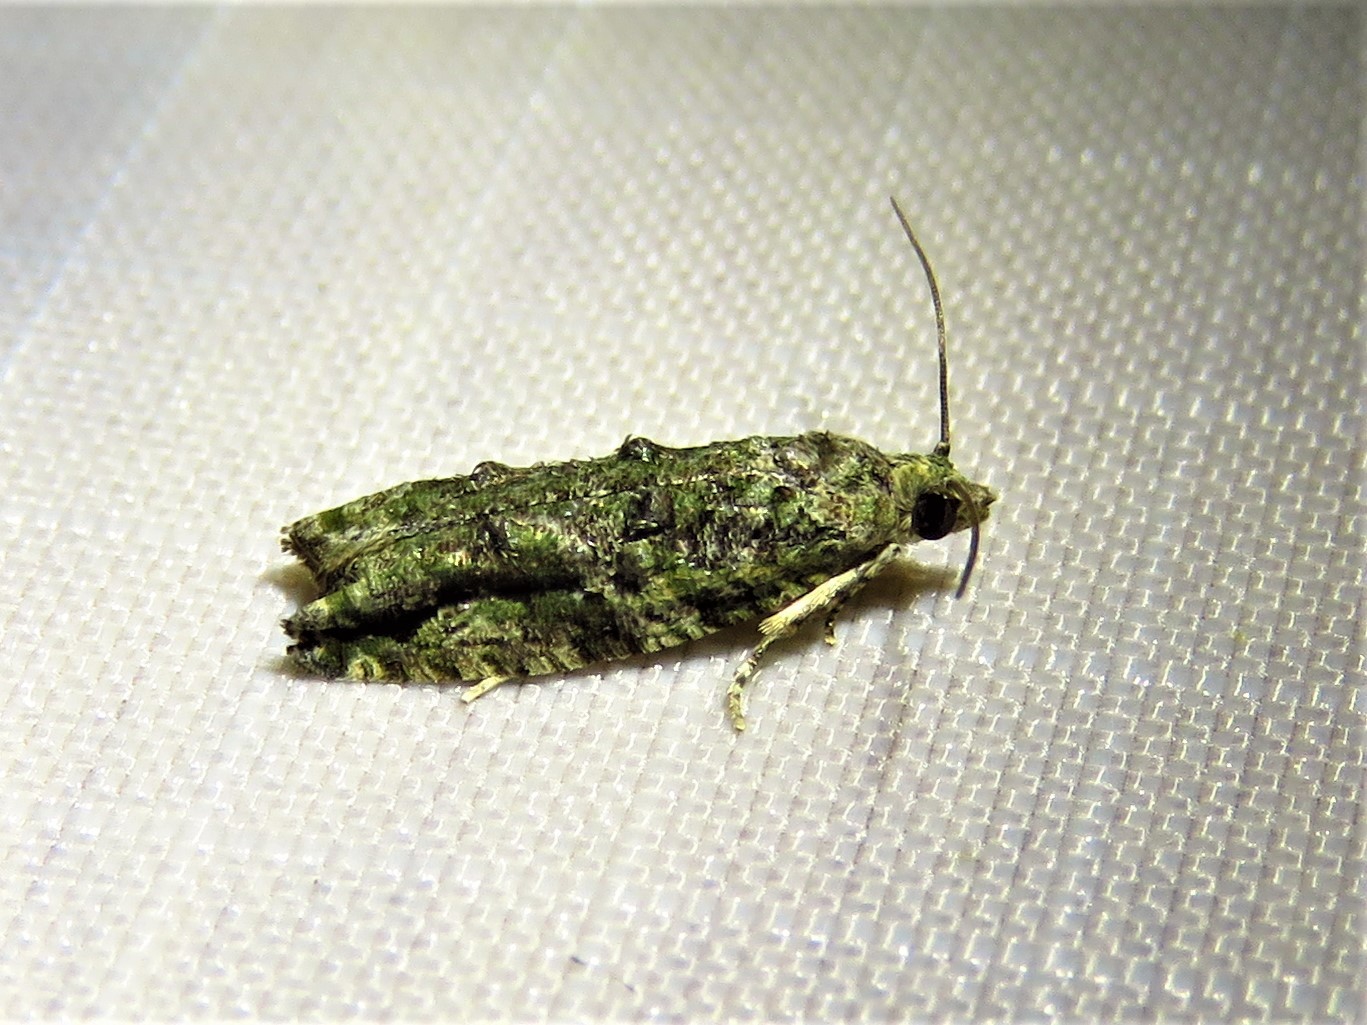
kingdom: Animalia
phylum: Arthropoda
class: Insecta
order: Lepidoptera
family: Tortricidae
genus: Proteoteras
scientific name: Proteoteras aesculana
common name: Maple twig borer moth
